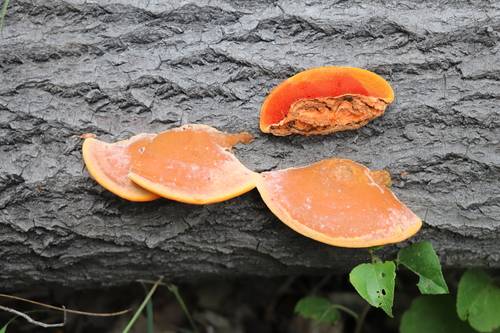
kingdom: Fungi
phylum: Basidiomycota
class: Agaricomycetes
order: Polyporales
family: Polyporaceae
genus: Trametes
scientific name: Trametes cinnabarina
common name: Northern cinnabar polypore
